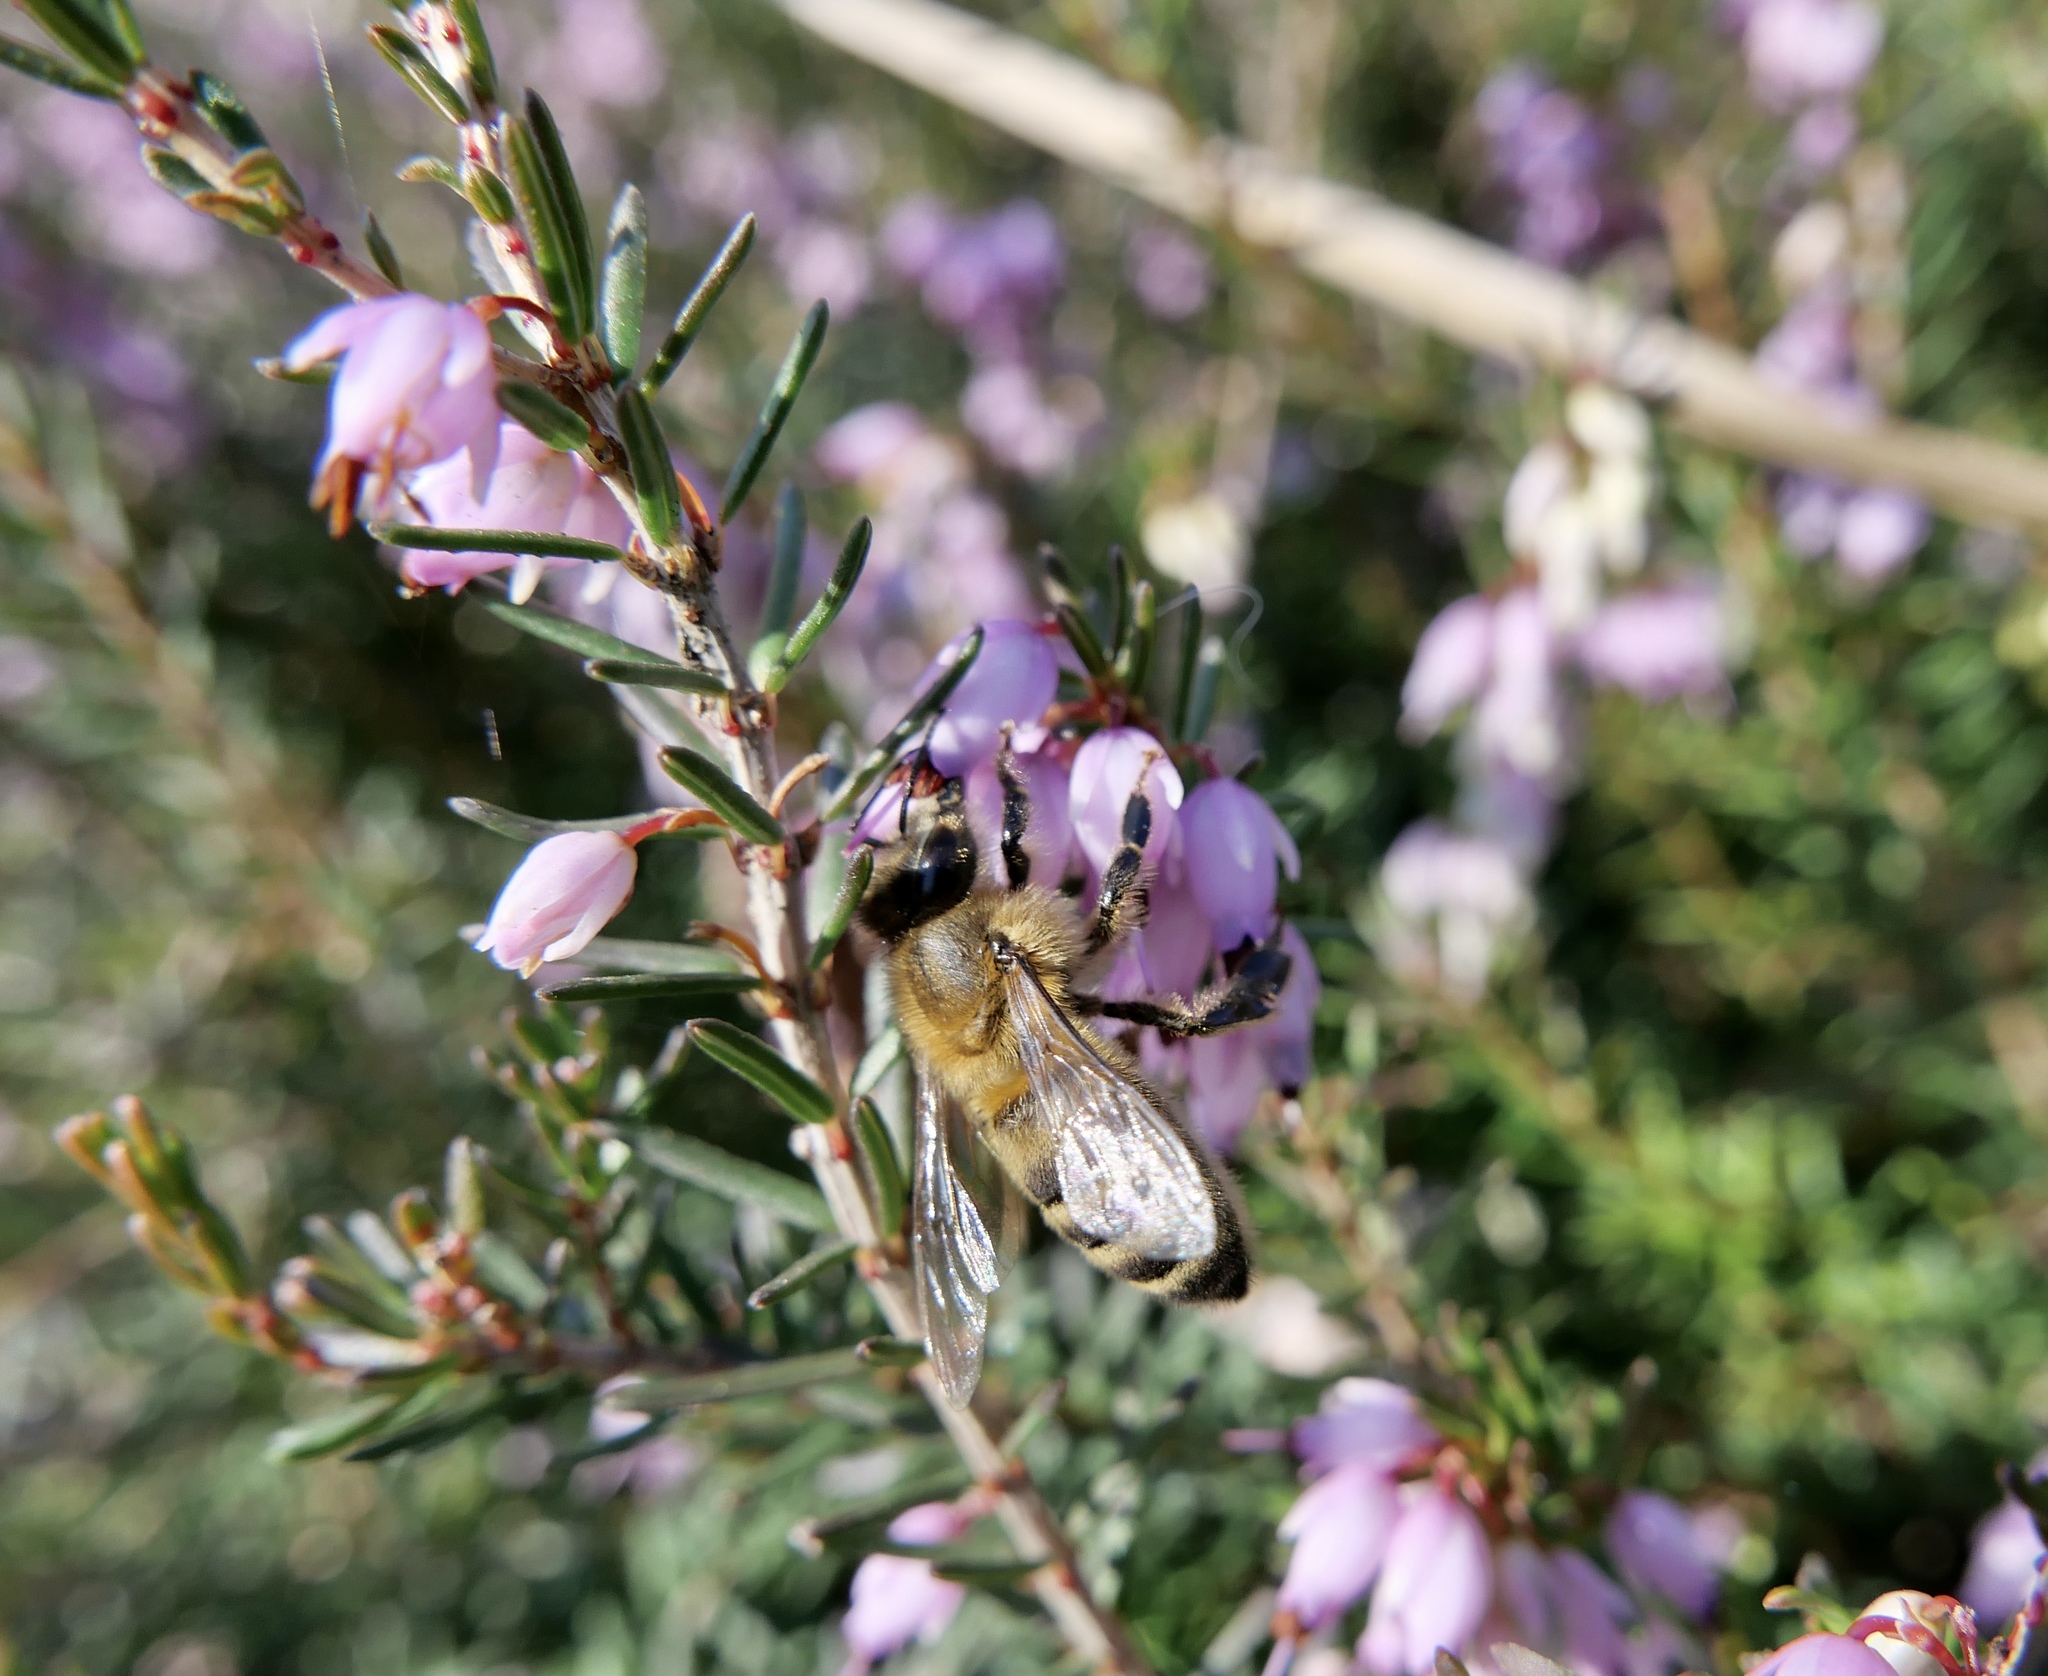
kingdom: Animalia
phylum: Arthropoda
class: Insecta
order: Hymenoptera
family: Apidae
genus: Apis
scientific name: Apis mellifera
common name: Honey bee
